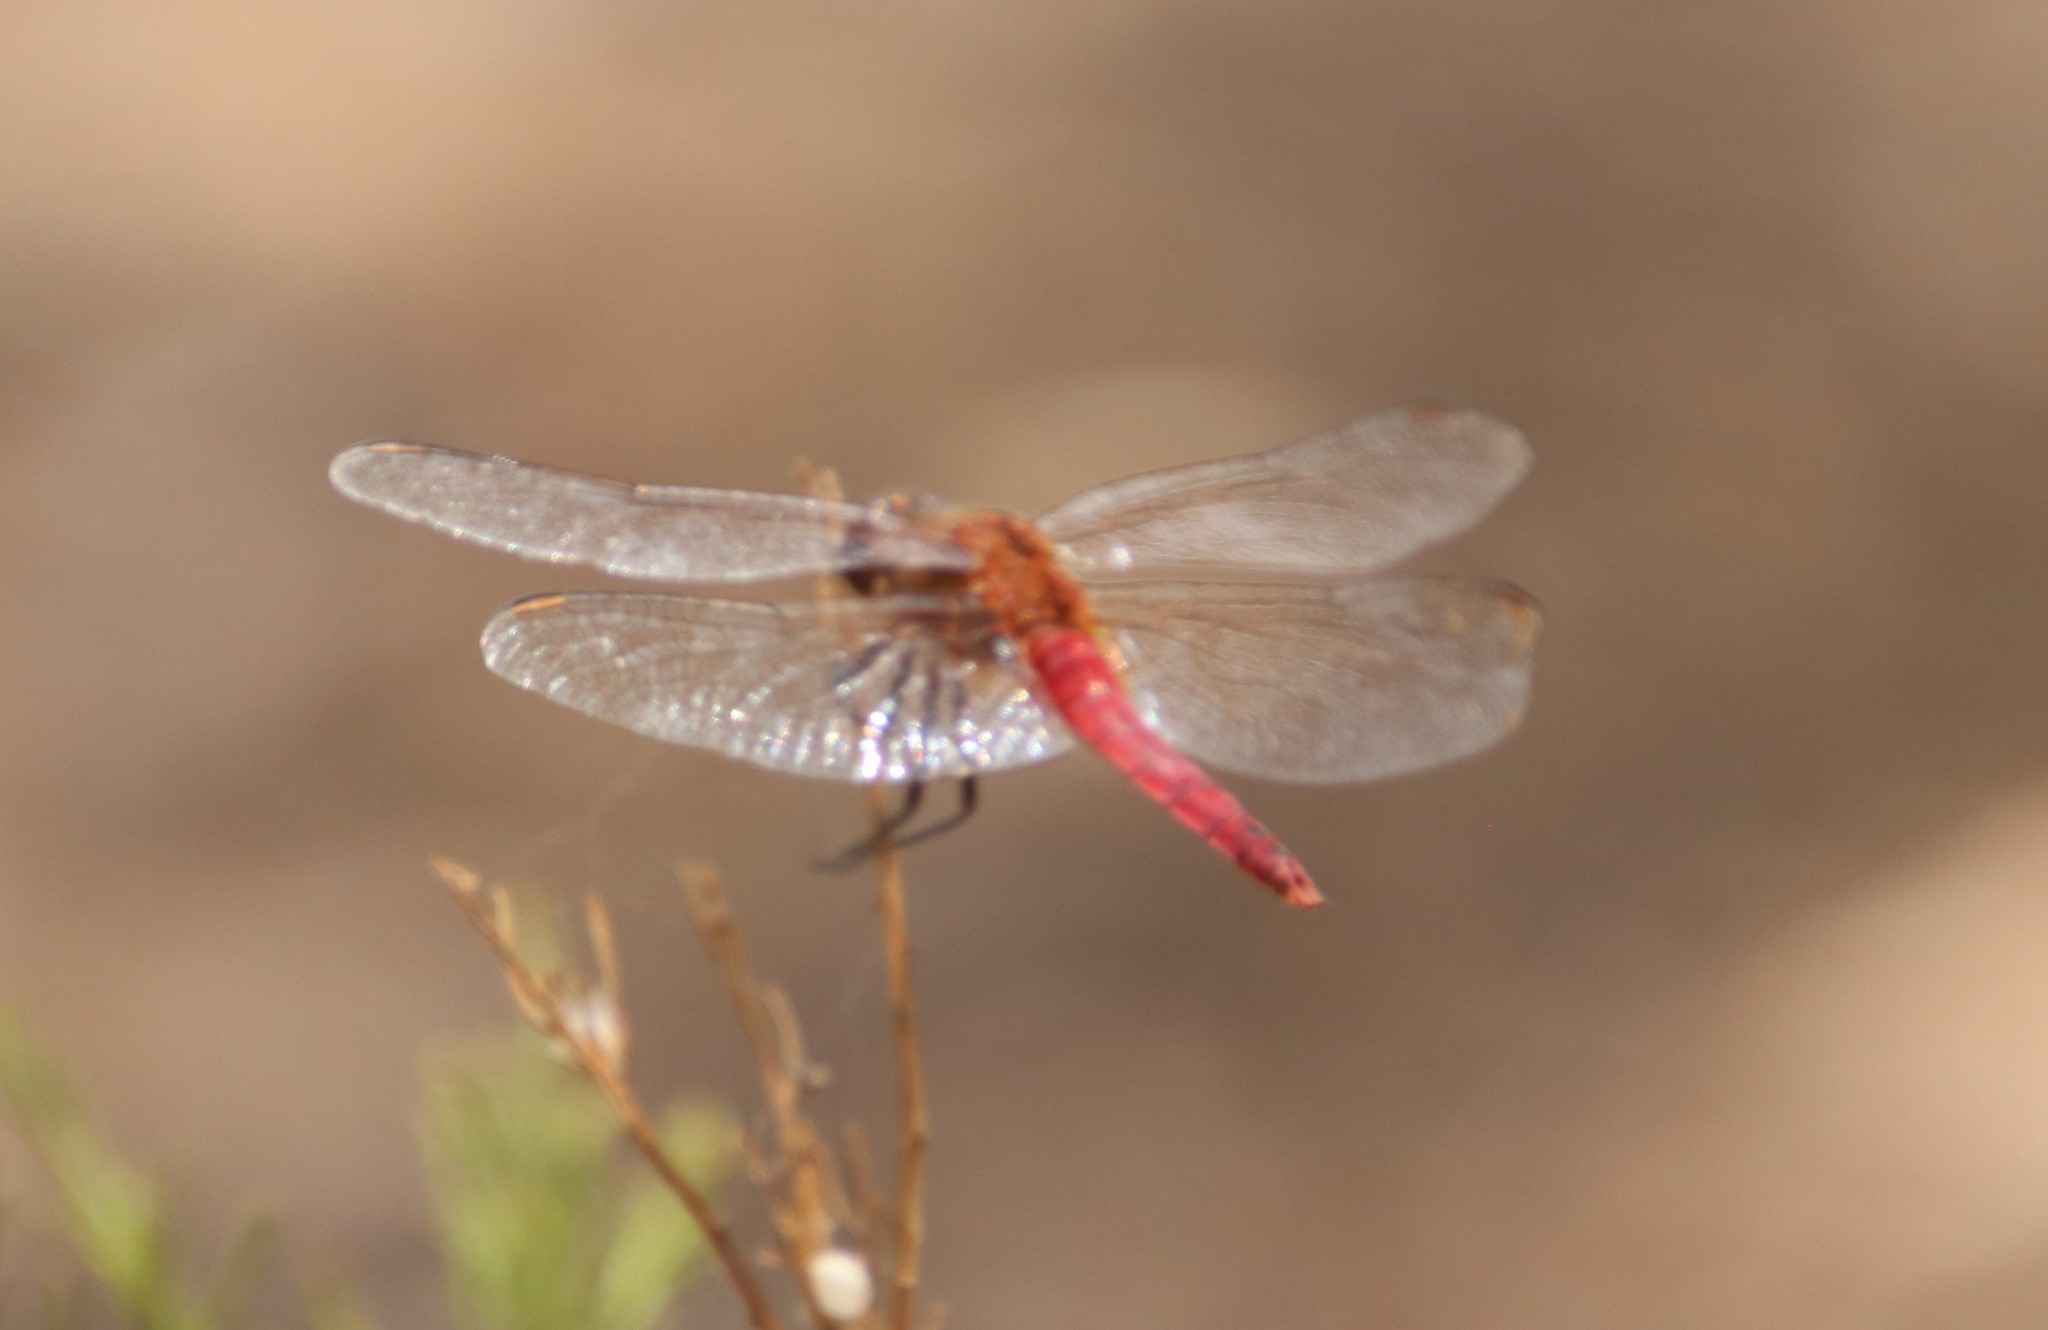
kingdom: Animalia
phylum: Arthropoda
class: Insecta
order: Odonata
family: Libellulidae
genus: Brachymesia
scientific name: Brachymesia furcata
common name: Red-taled pennant
